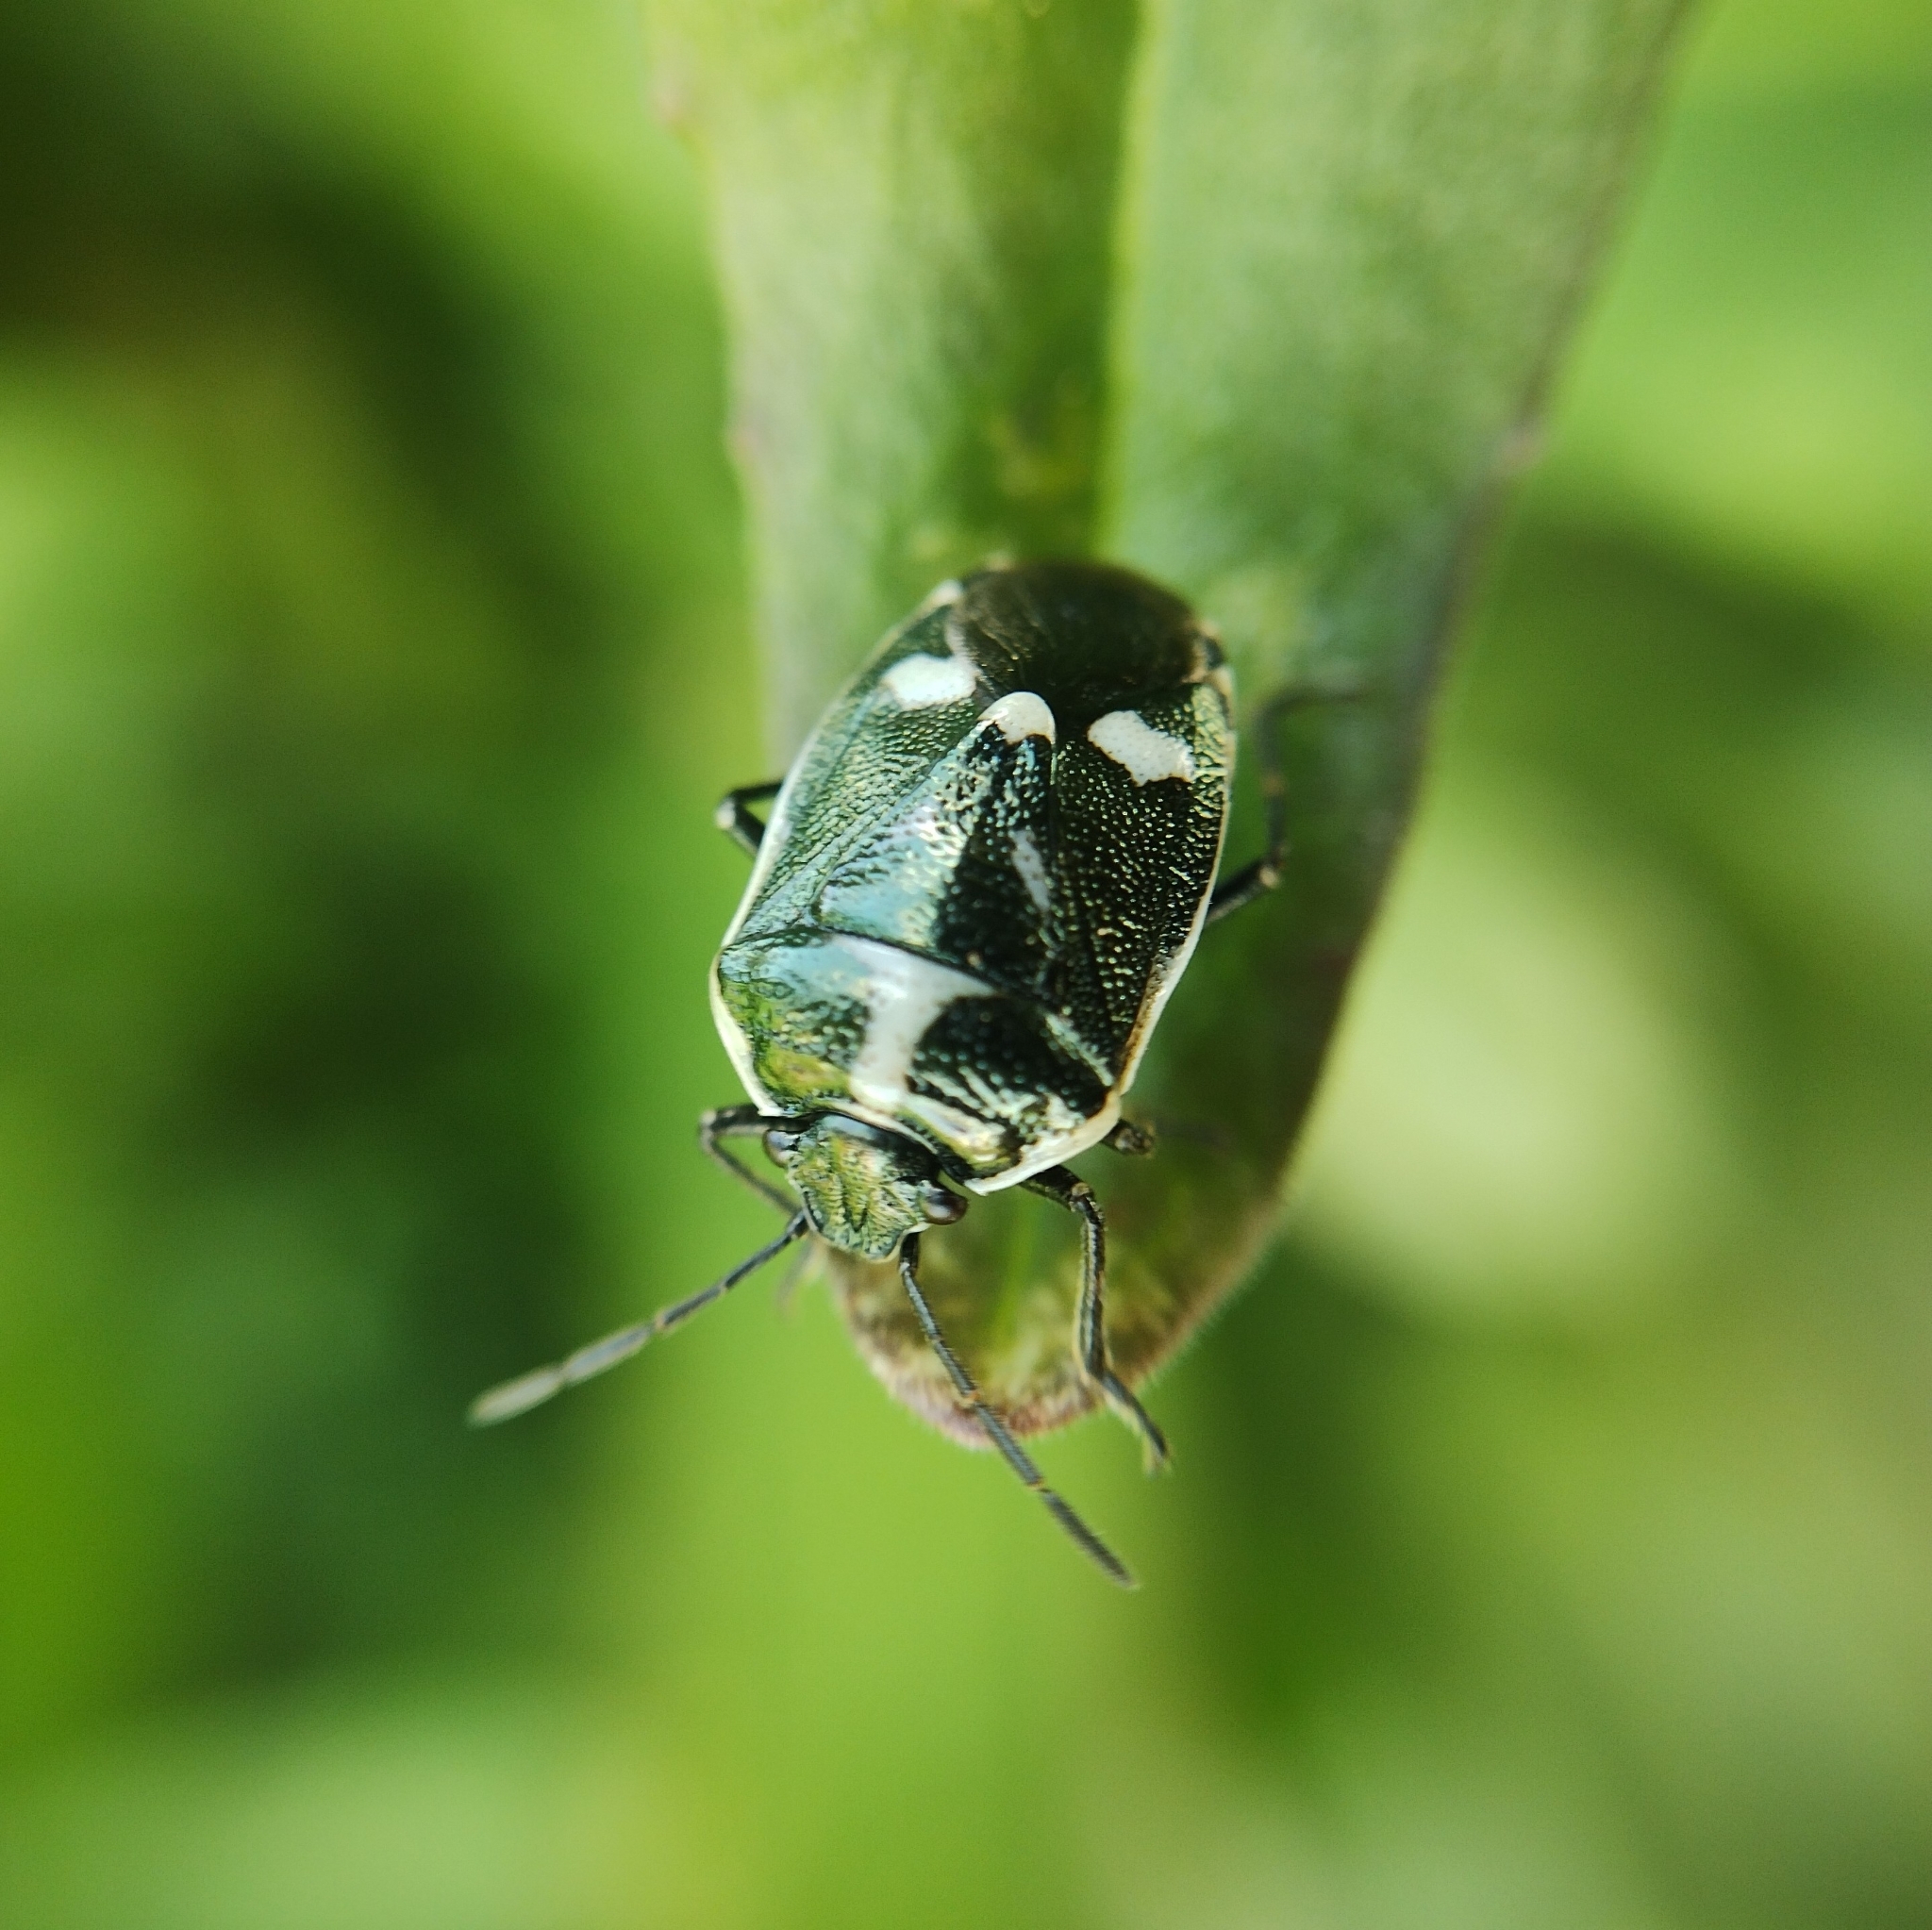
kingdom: Animalia
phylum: Arthropoda
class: Insecta
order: Hemiptera
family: Pentatomidae
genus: Eurydema
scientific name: Eurydema oleracea
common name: Cabbage bug
